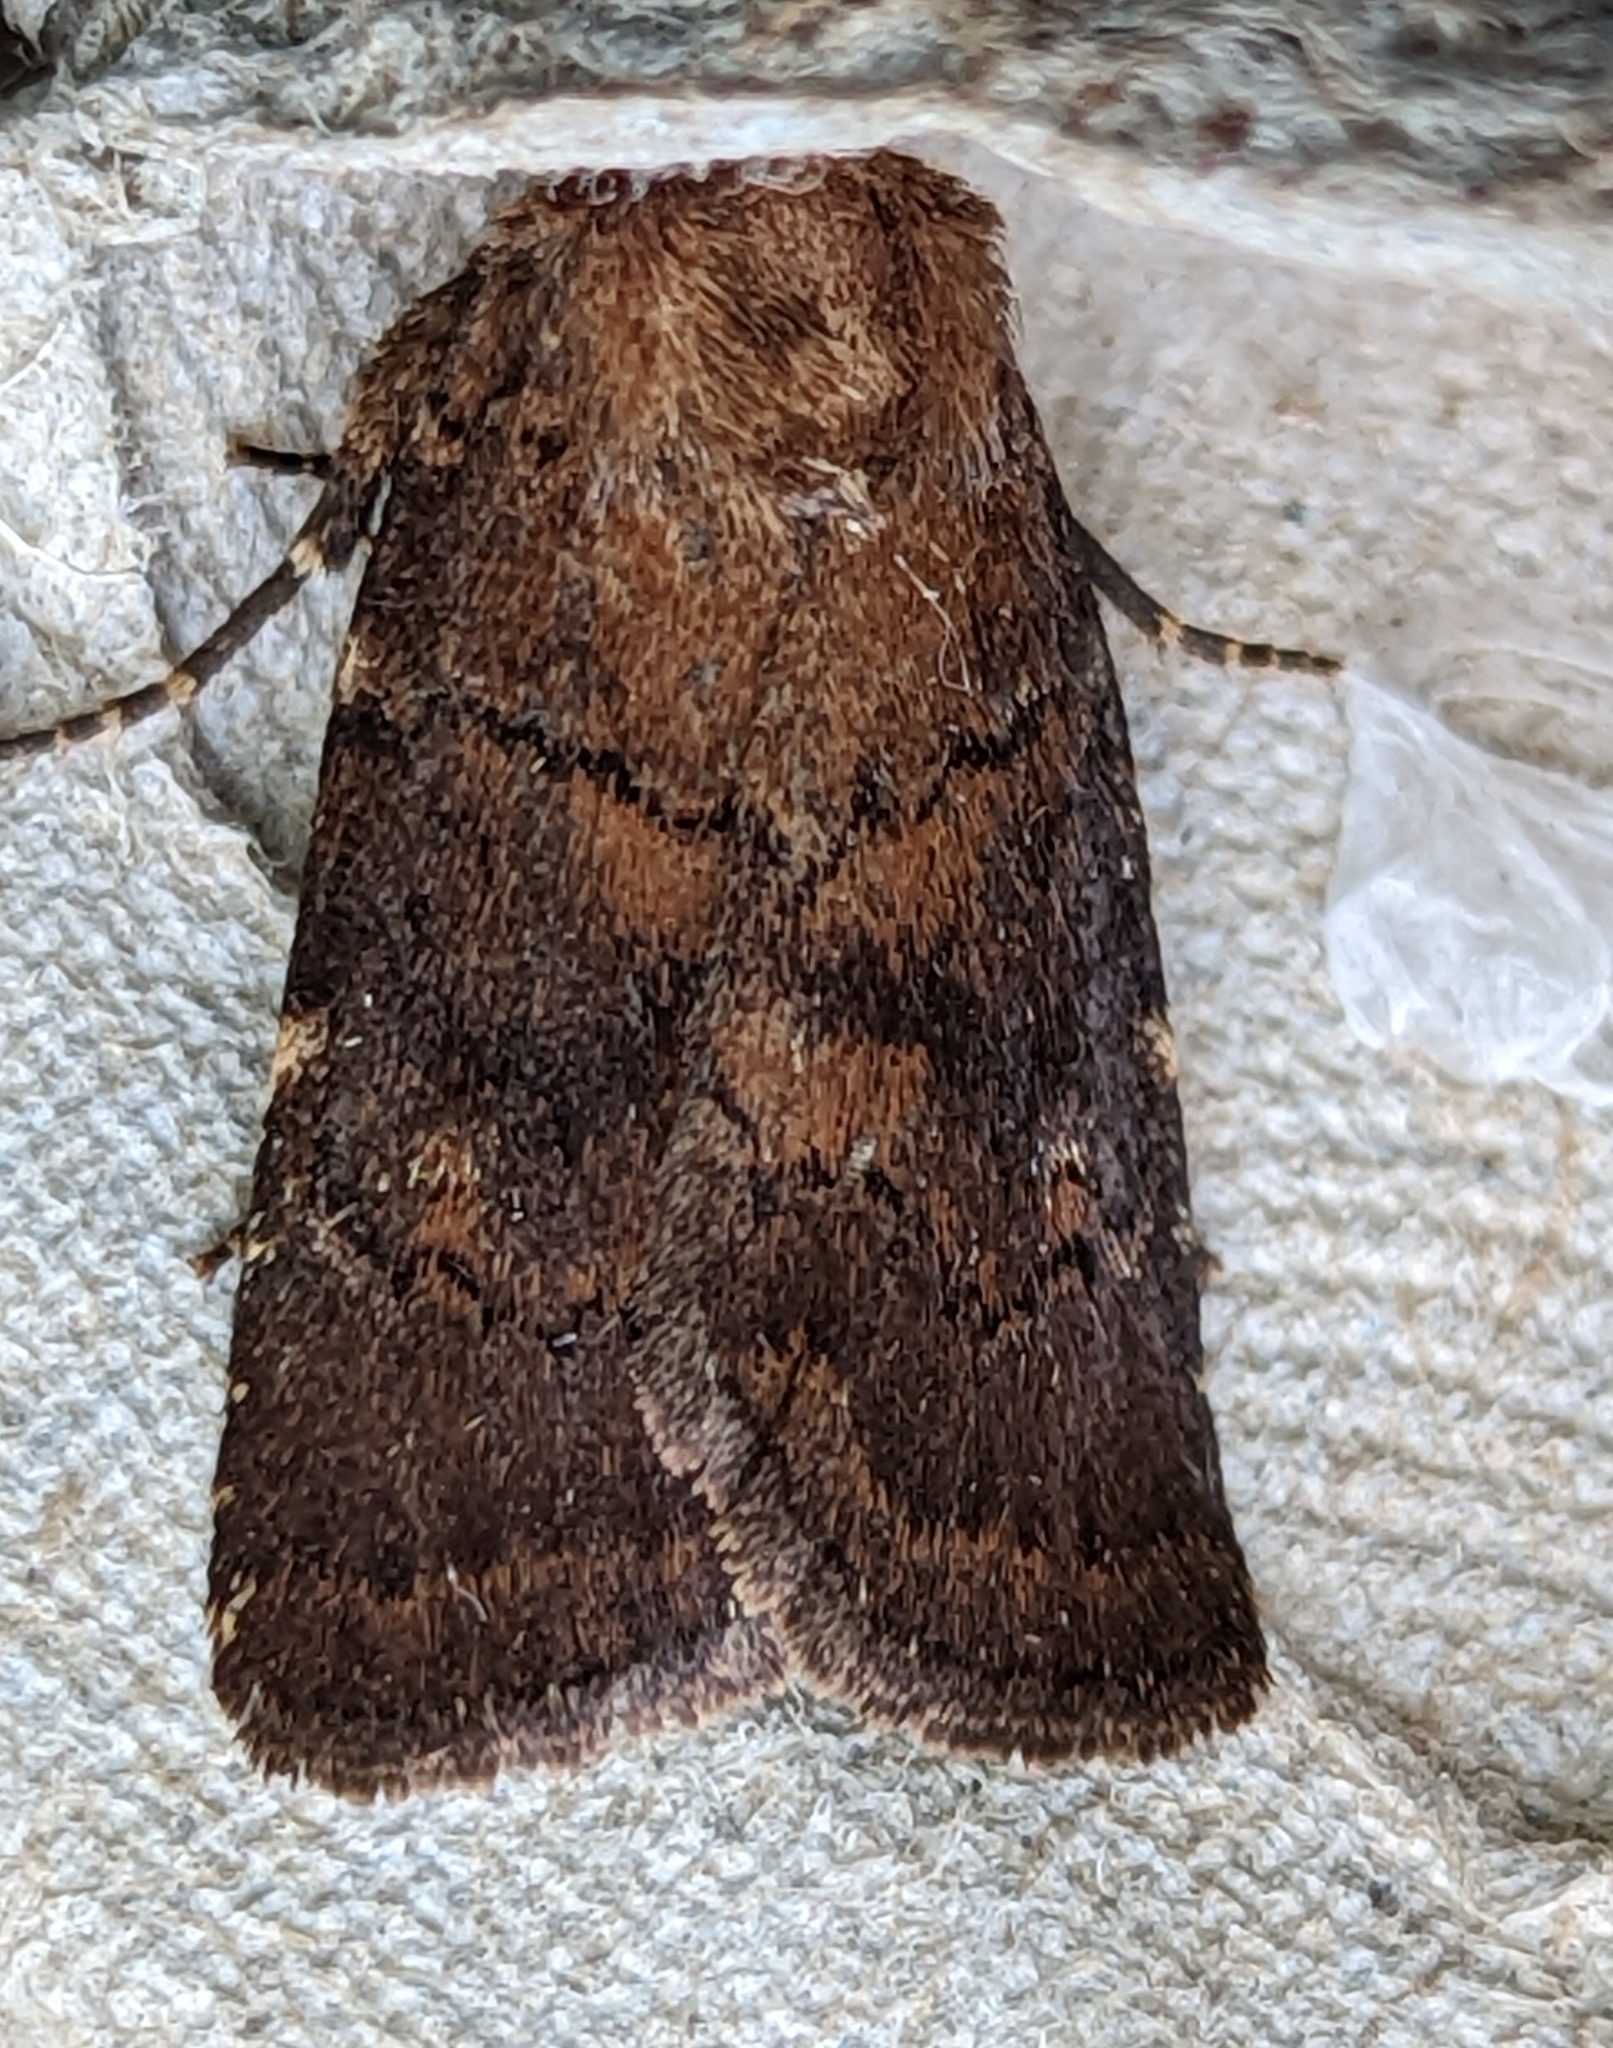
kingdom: Animalia
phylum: Arthropoda
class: Insecta
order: Lepidoptera
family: Noctuidae
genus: Charanyca
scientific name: Charanyca ferruginea
